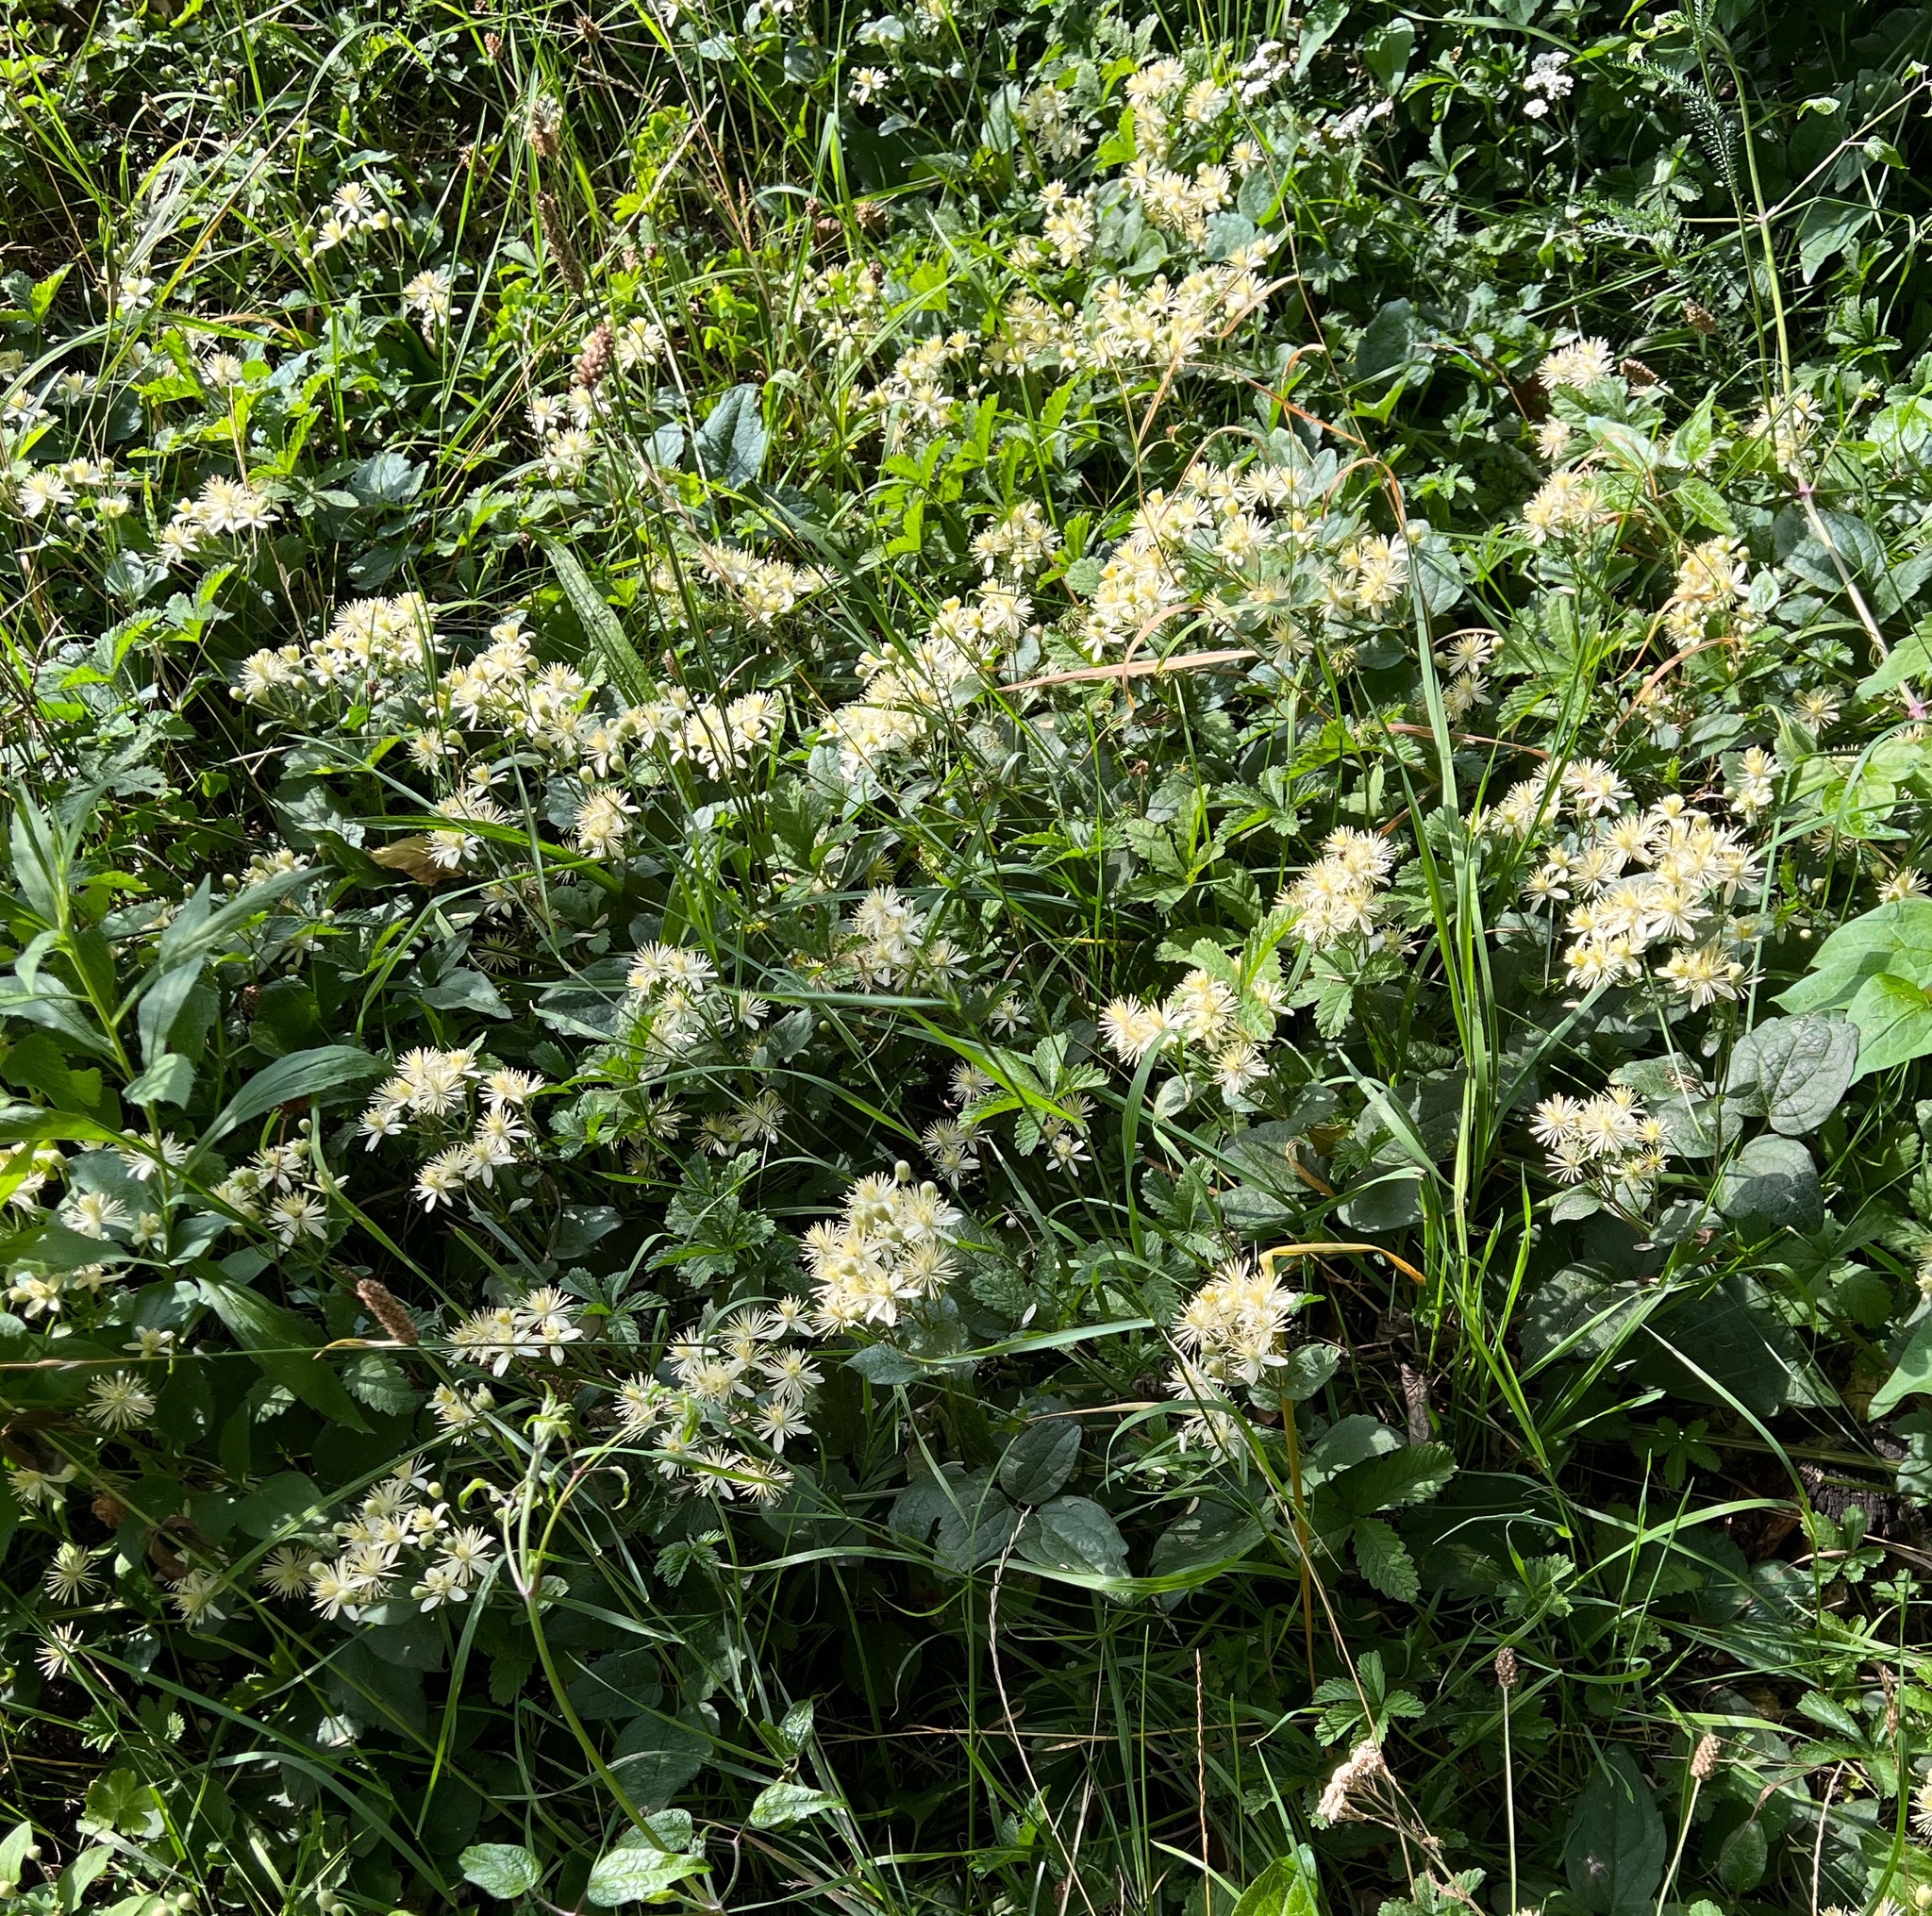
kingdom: Plantae
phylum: Tracheophyta
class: Magnoliopsida
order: Ranunculales
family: Ranunculaceae
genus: Clematis
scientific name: Clematis vitalba
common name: Evergreen clematis
